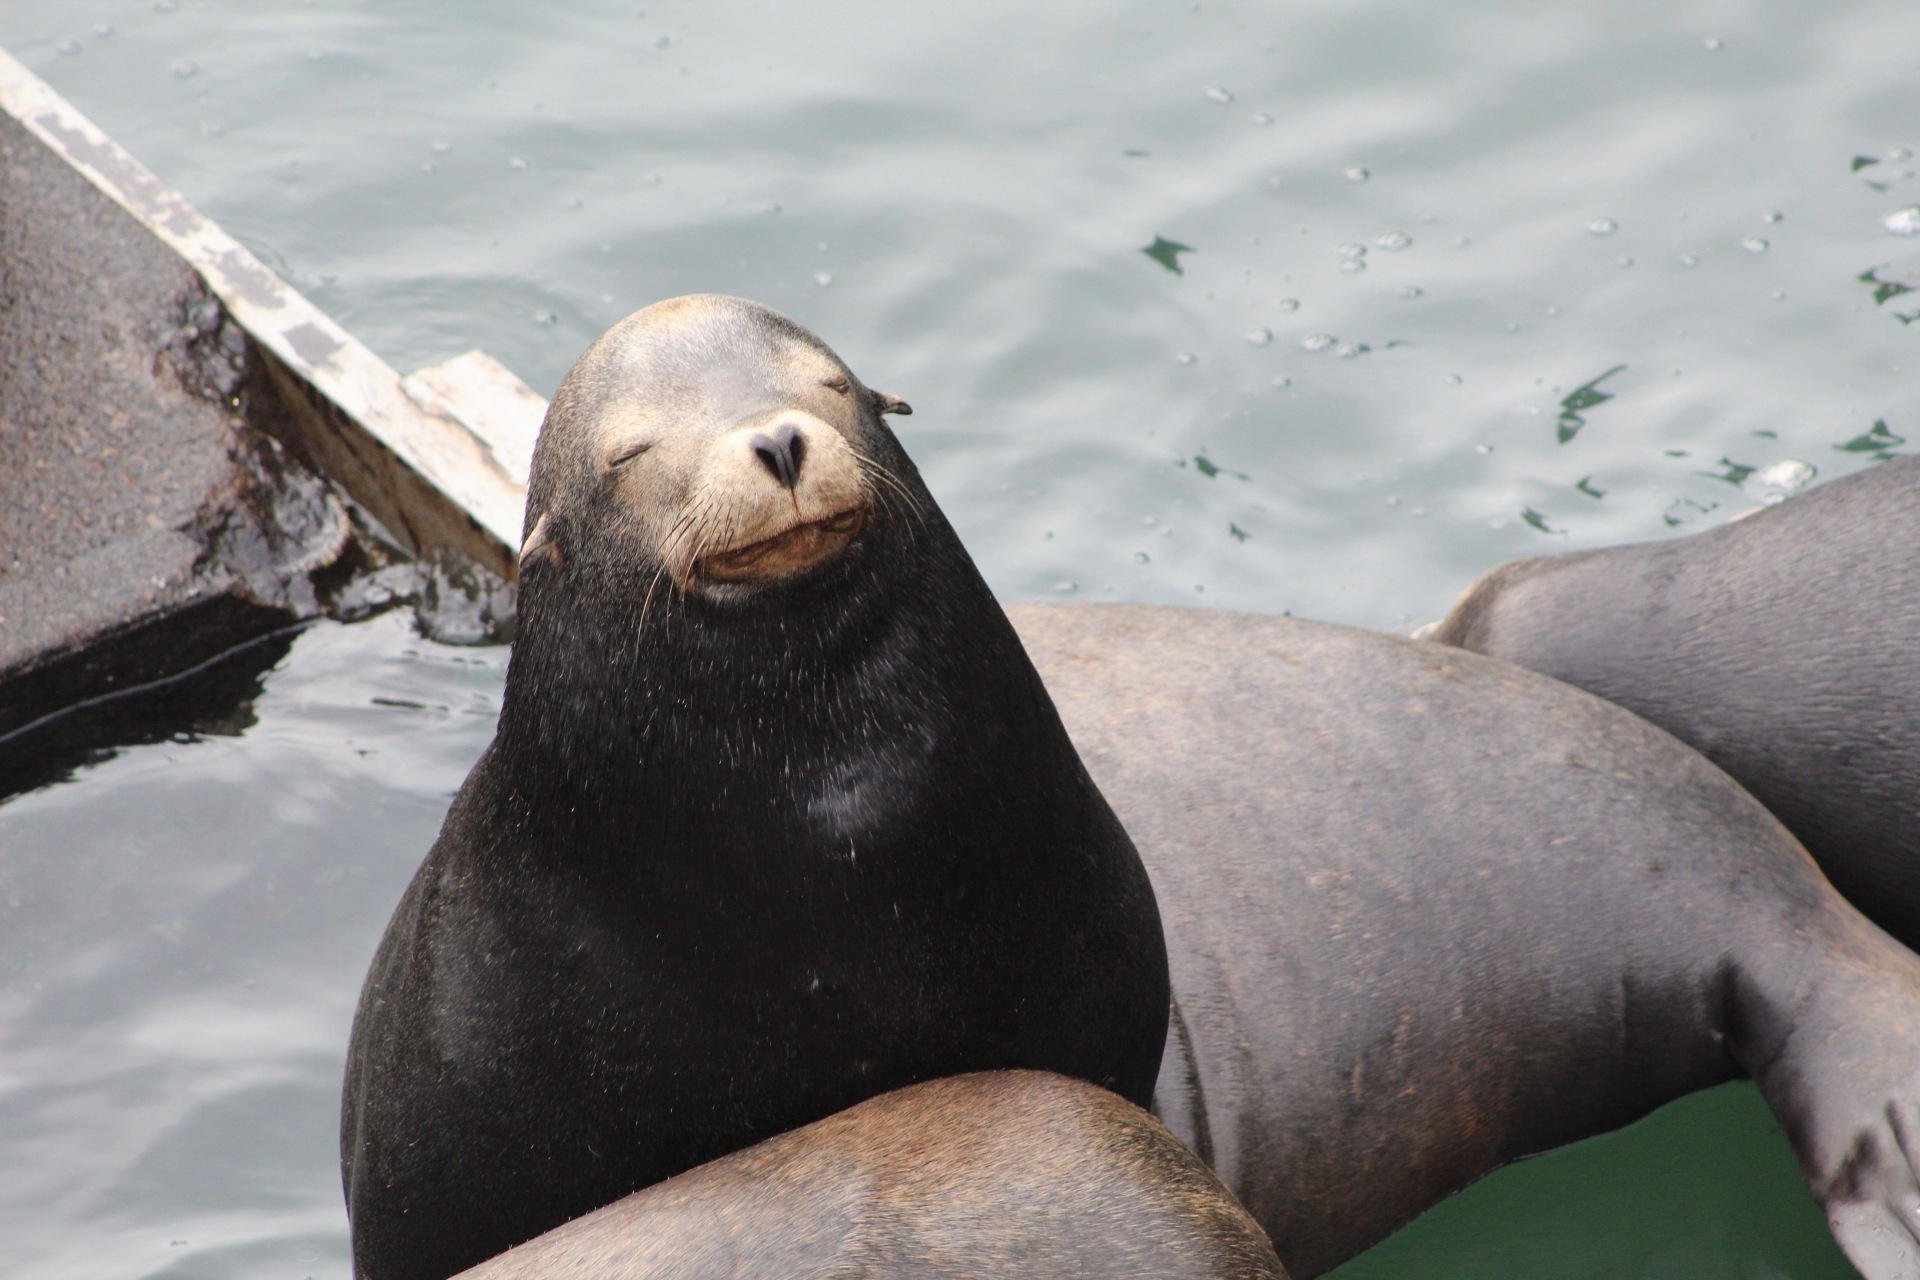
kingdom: Animalia
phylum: Chordata
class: Mammalia
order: Carnivora
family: Otariidae
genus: Zalophus
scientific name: Zalophus californianus
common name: California sea lion
